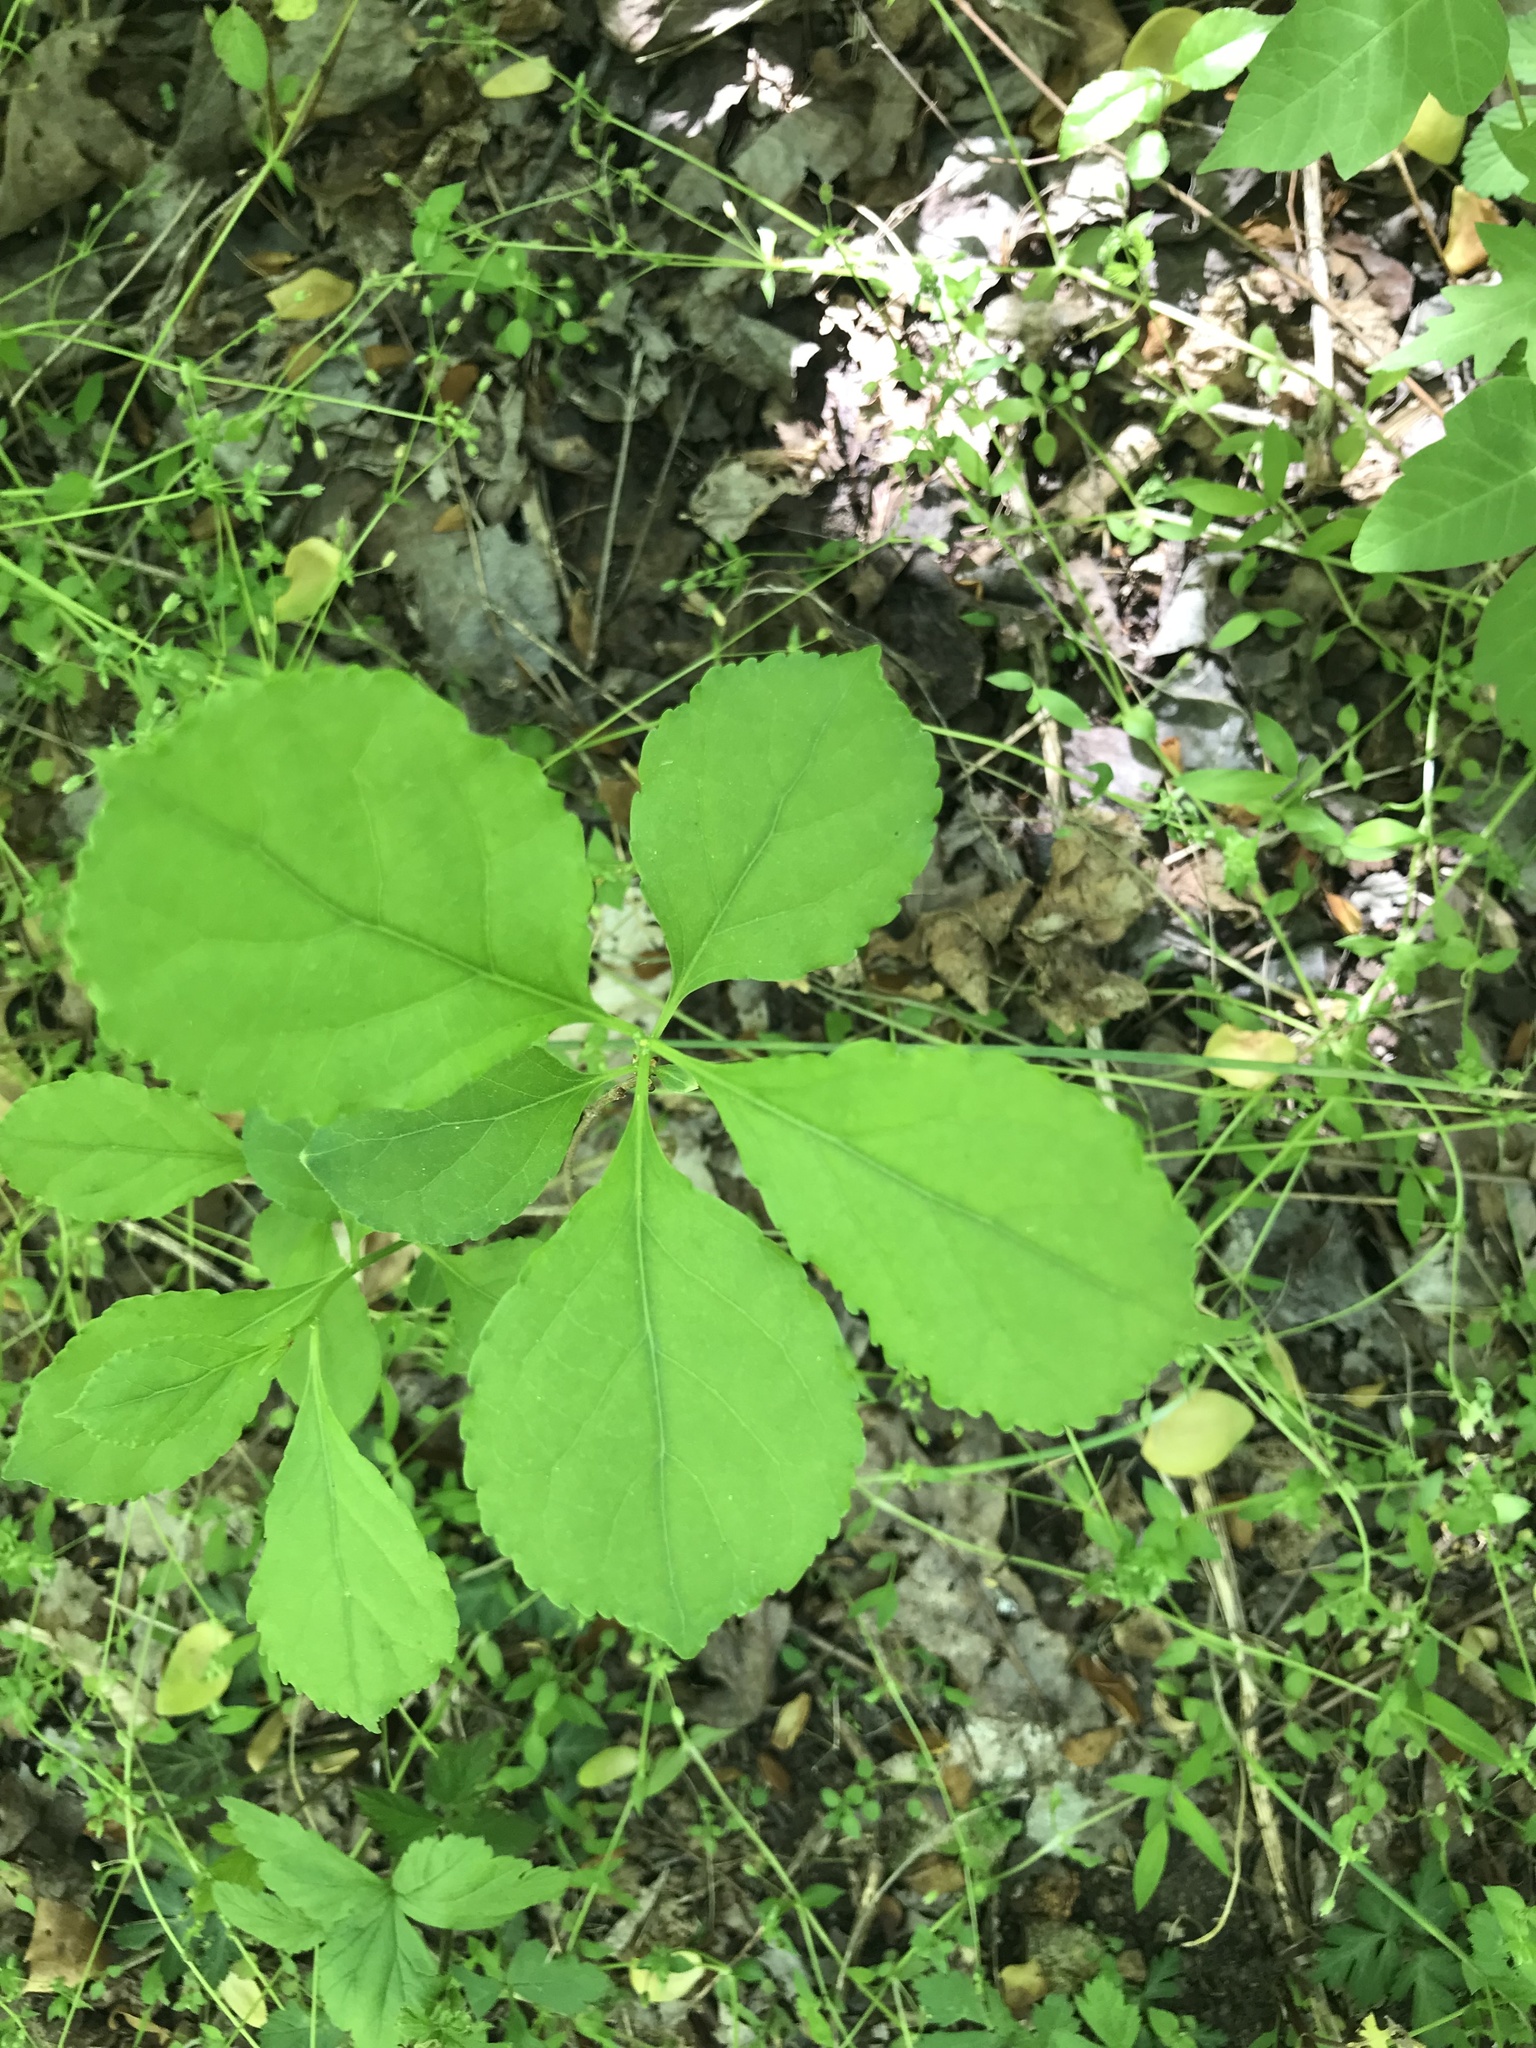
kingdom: Plantae
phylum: Tracheophyta
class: Magnoliopsida
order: Celastrales
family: Celastraceae
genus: Celastrus
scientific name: Celastrus orbiculatus
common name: Oriental bittersweet
